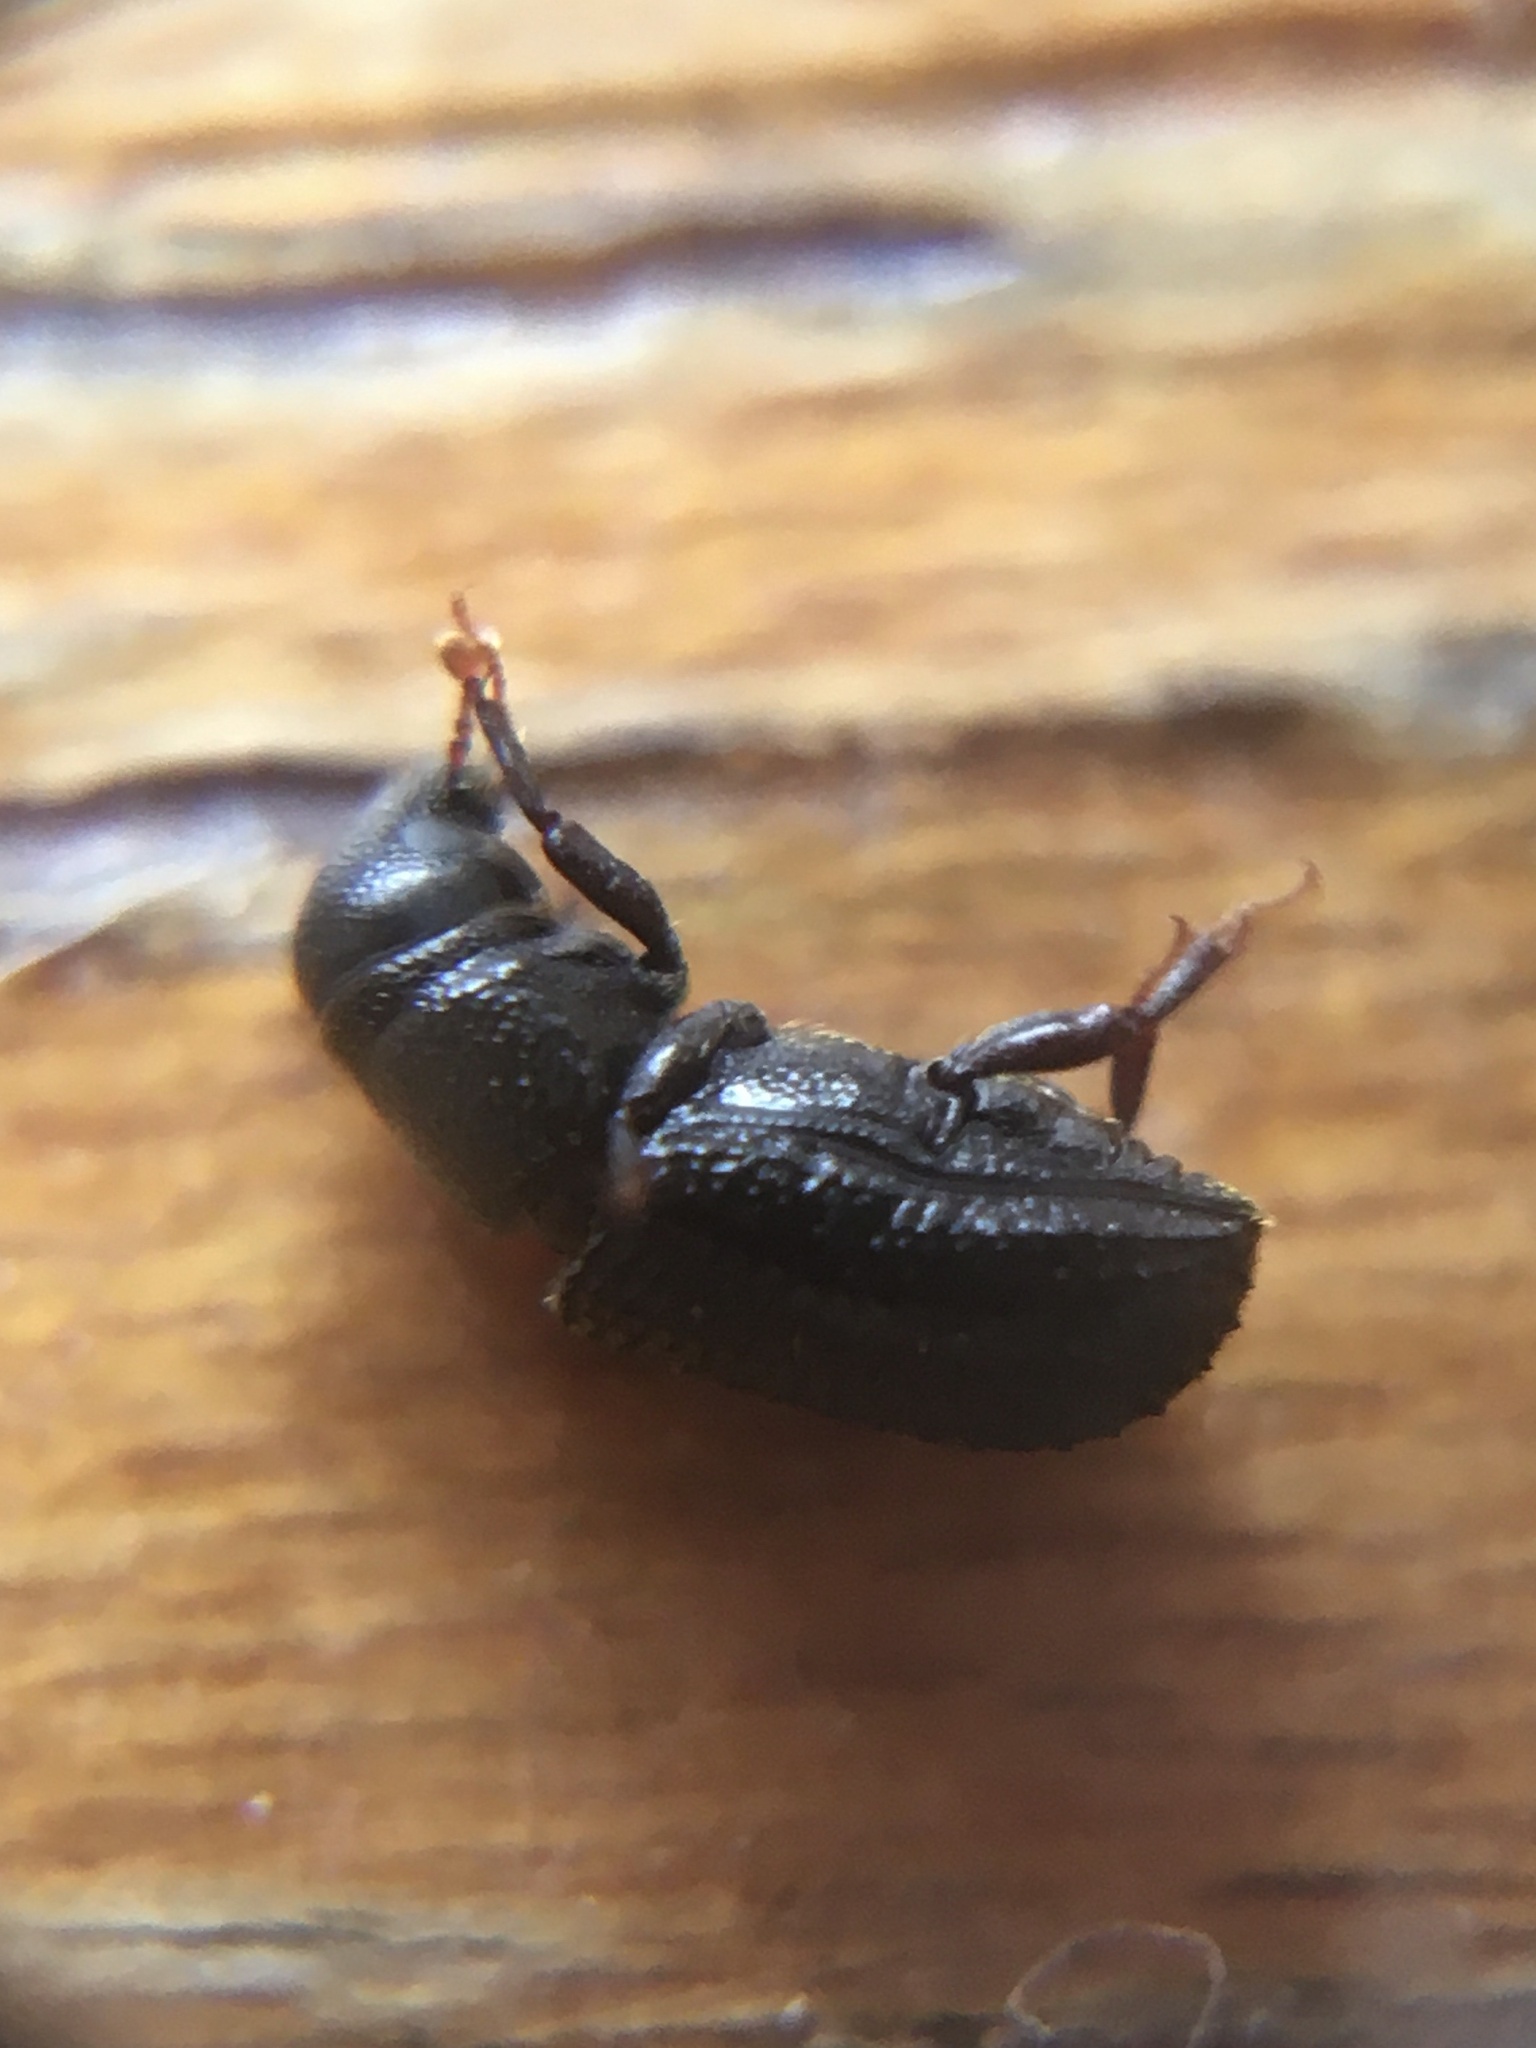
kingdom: Animalia
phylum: Arthropoda
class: Insecta
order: Coleoptera
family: Curculionidae
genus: Stenoscelis
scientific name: Stenoscelis hylastoides
